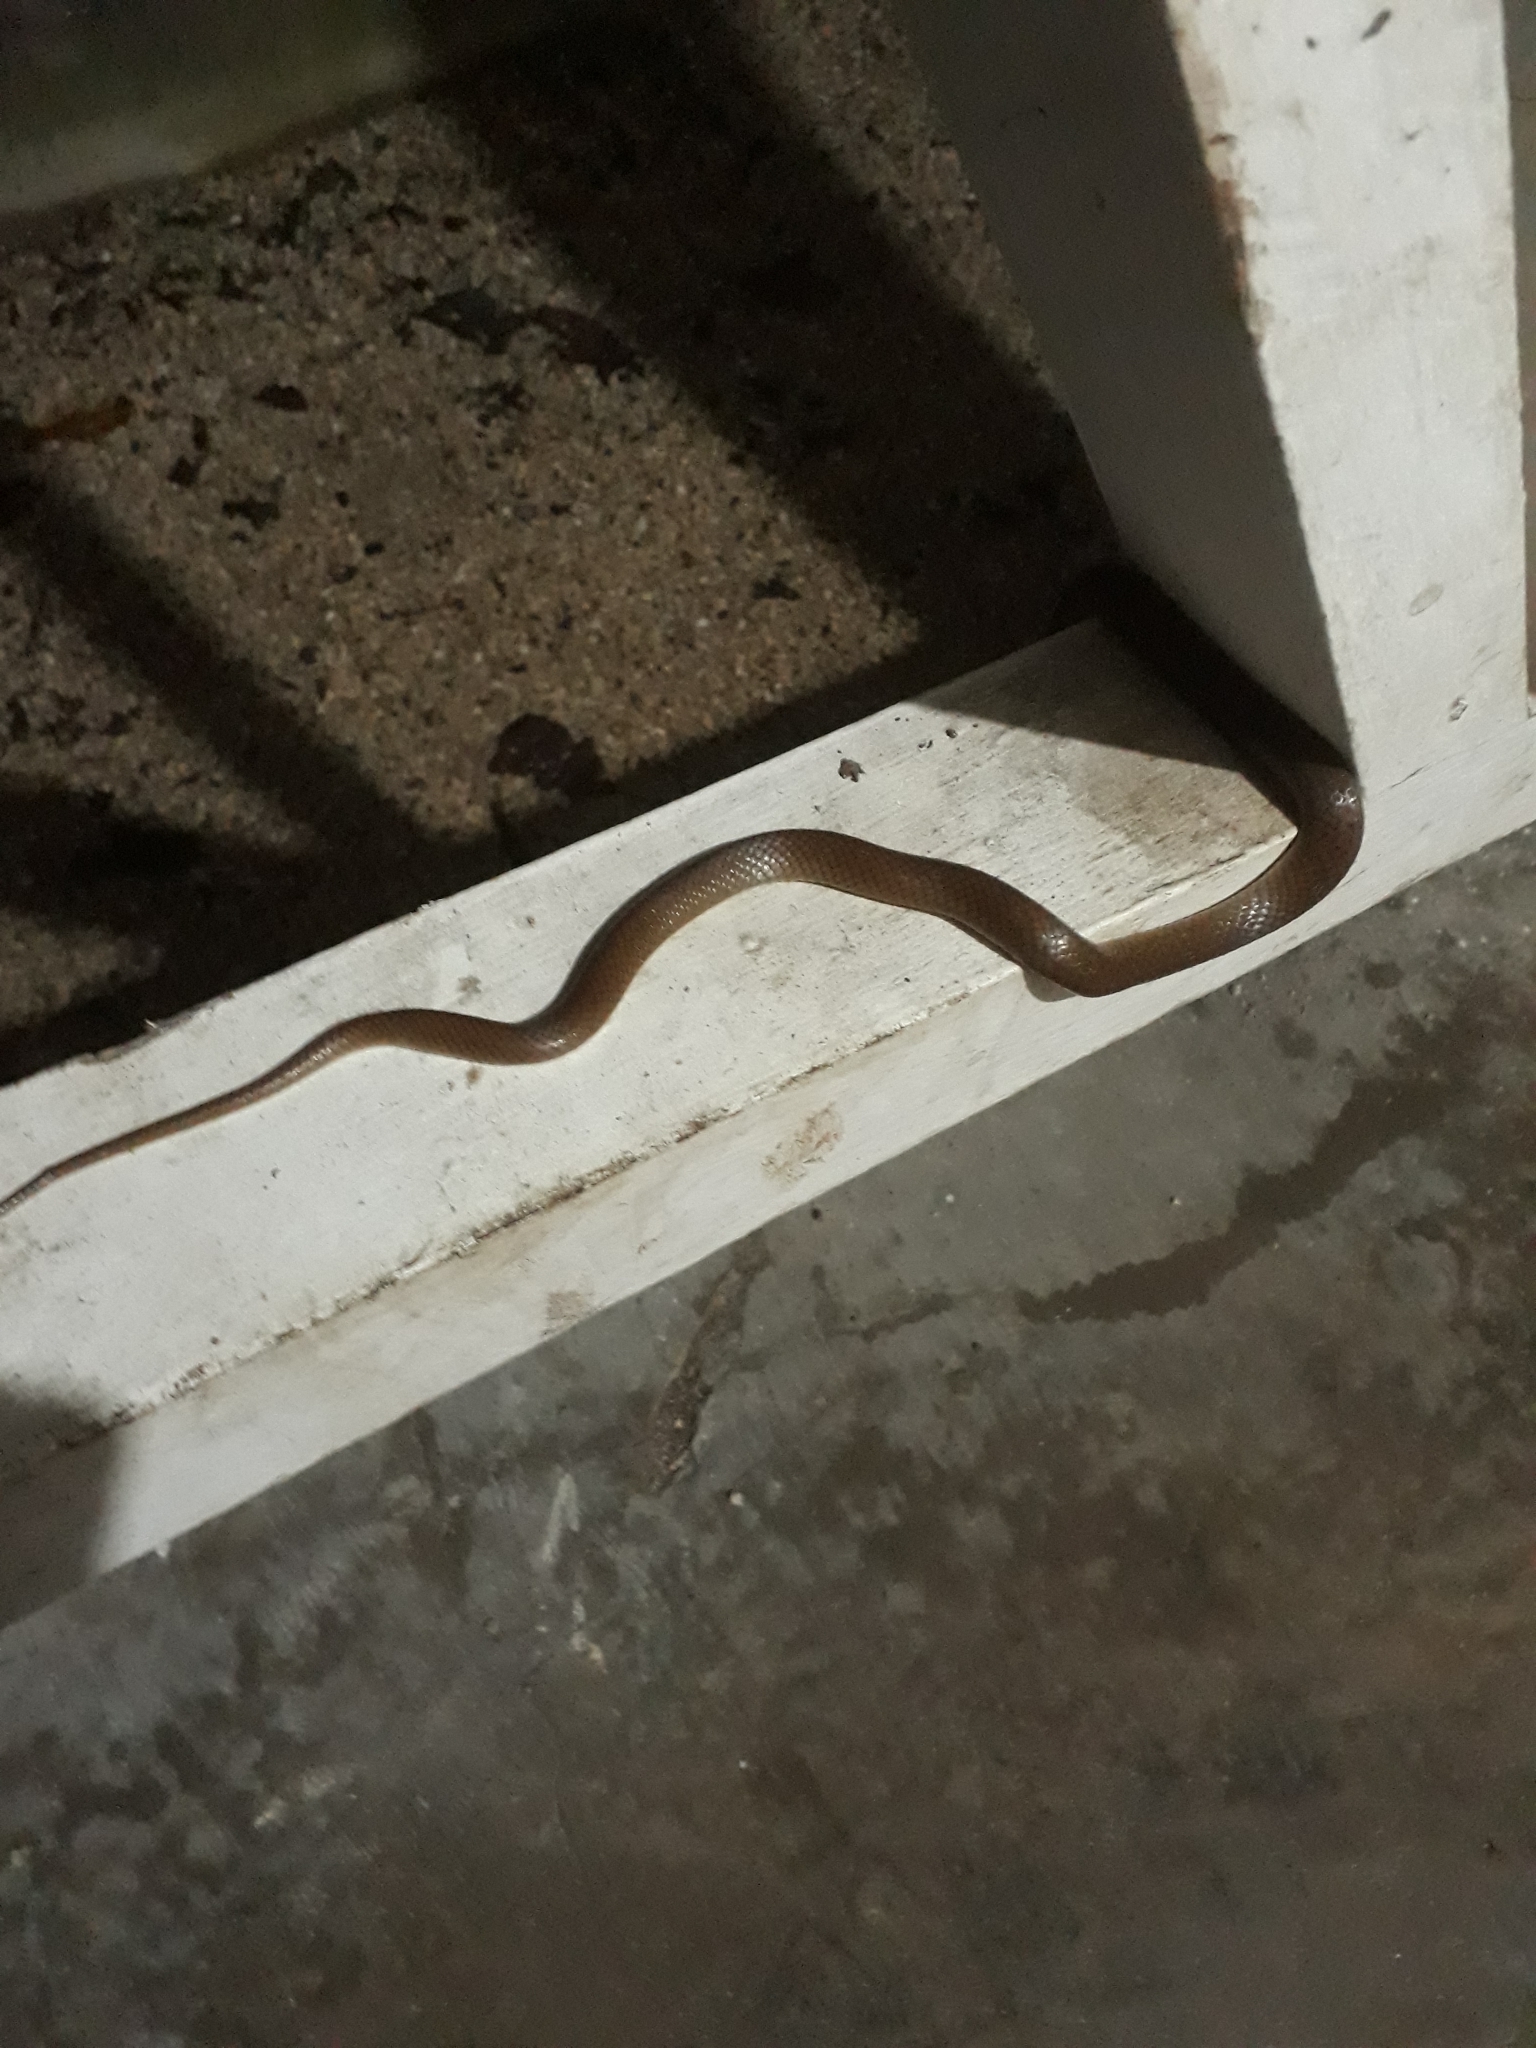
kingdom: Animalia
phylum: Chordata
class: Squamata
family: Colubridae
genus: Lycodon
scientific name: Lycodon aulicus
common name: Common wolf snake
